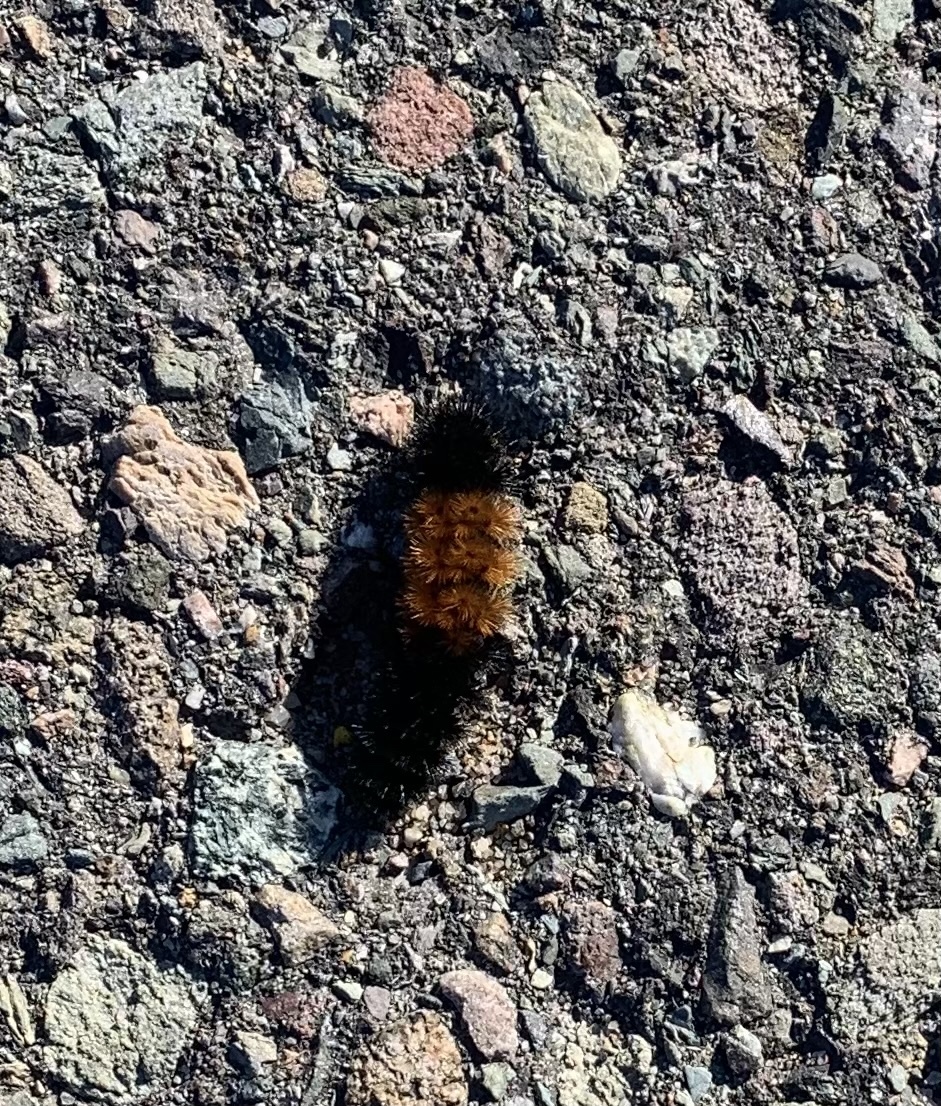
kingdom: Animalia
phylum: Arthropoda
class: Insecta
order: Lepidoptera
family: Erebidae
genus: Pyrrharctia
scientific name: Pyrrharctia isabella
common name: Isabella tiger moth
